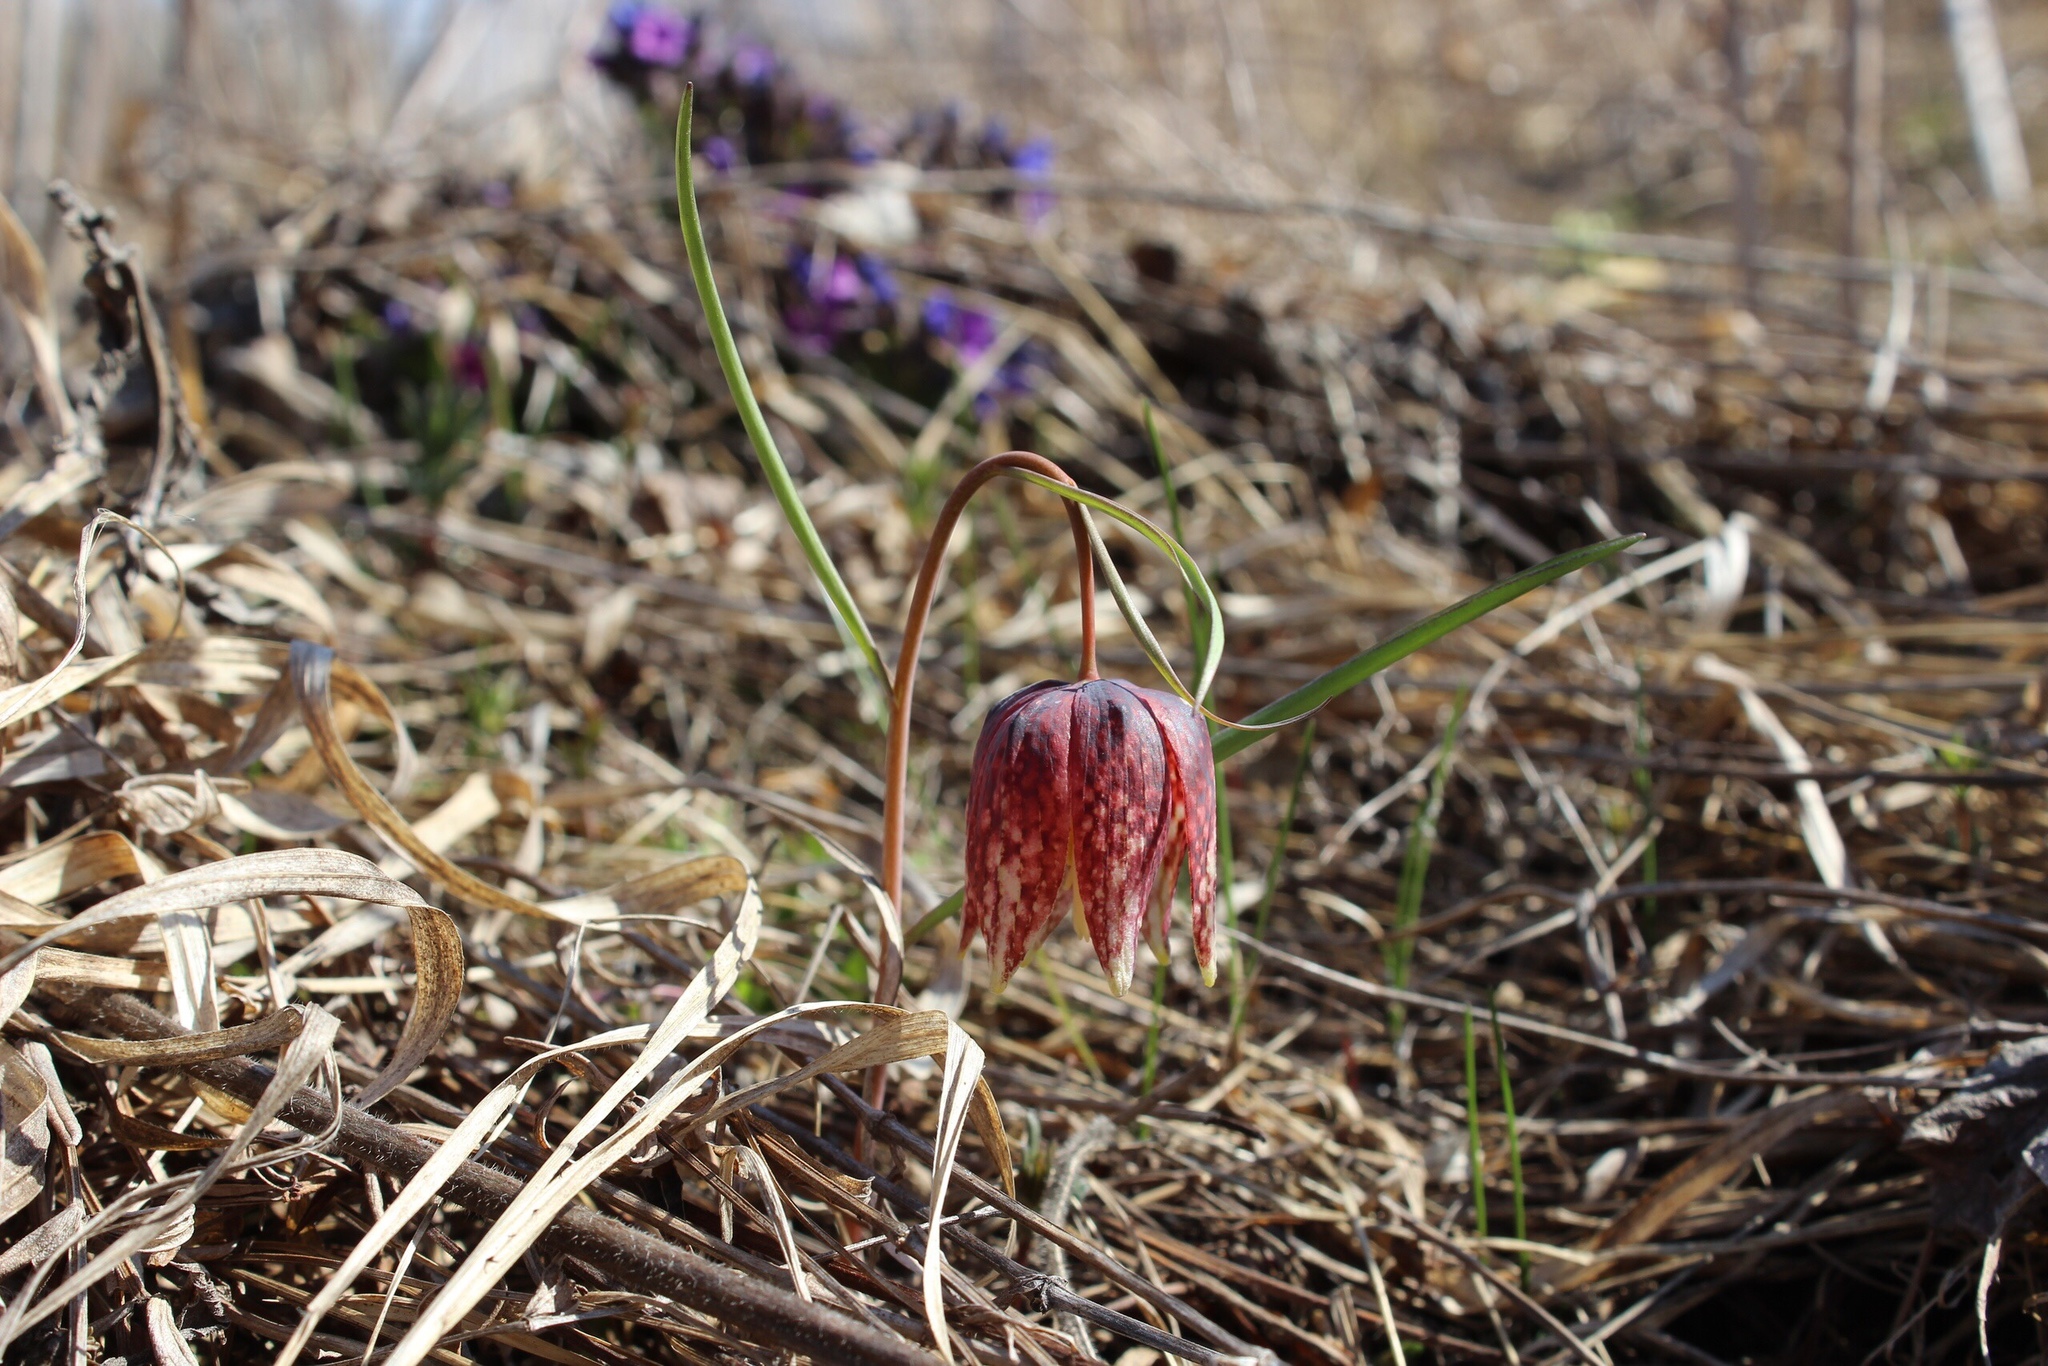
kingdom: Plantae
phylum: Tracheophyta
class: Liliopsida
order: Liliales
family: Liliaceae
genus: Fritillaria
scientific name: Fritillaria meleagris
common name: Fritillary
